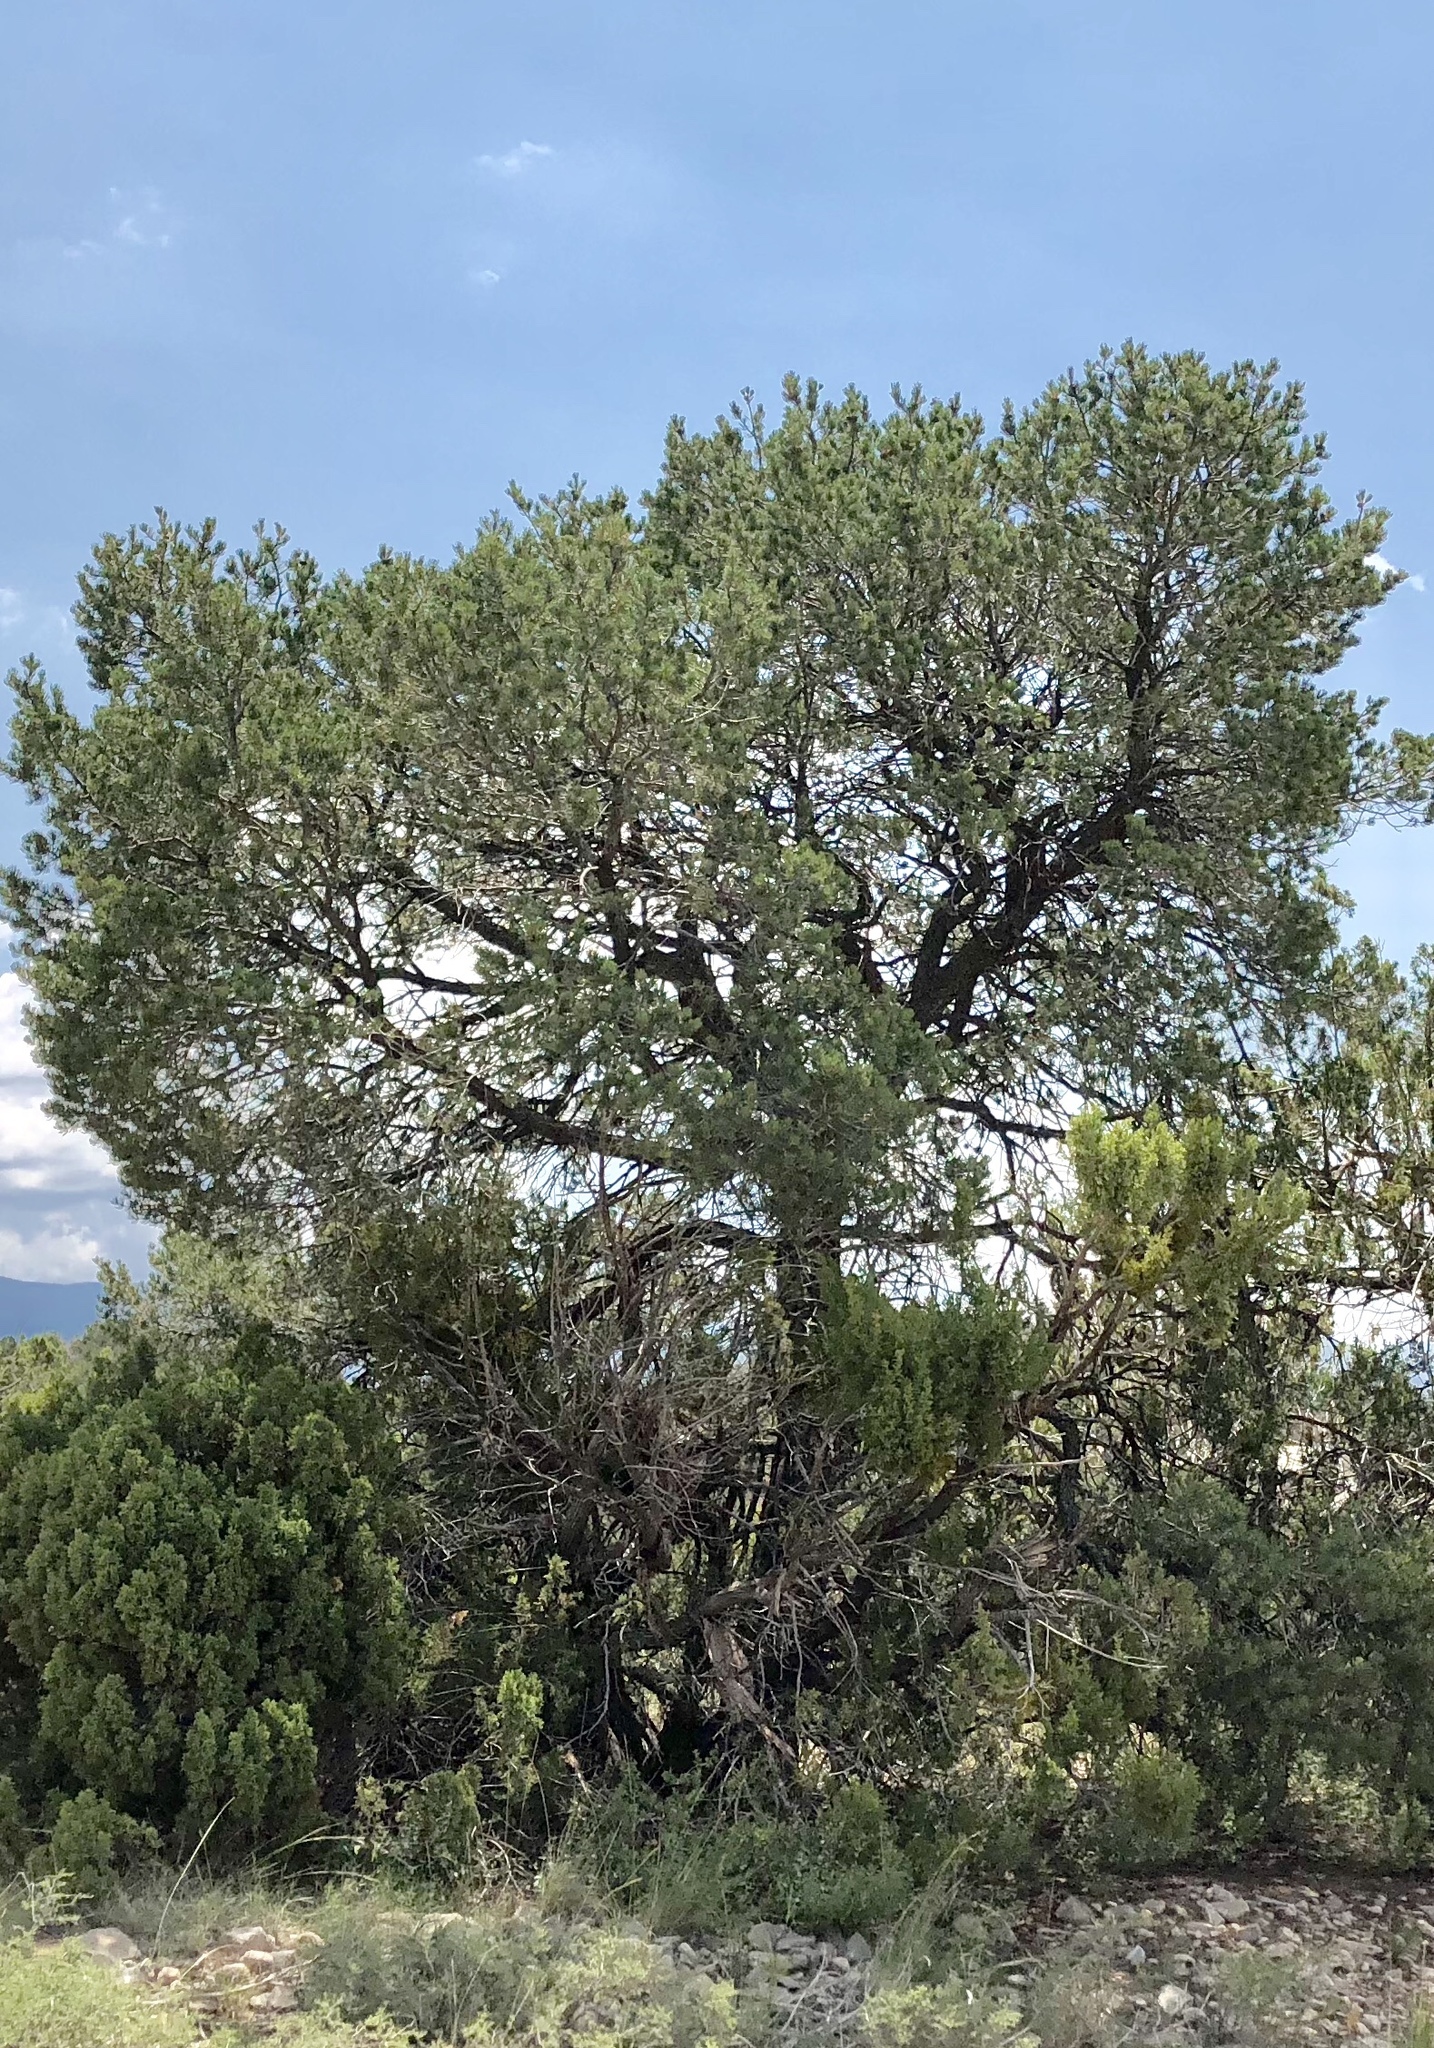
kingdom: Plantae
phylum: Tracheophyta
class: Pinopsida
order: Pinales
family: Pinaceae
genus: Pinus
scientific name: Pinus edulis
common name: Colorado pinyon
